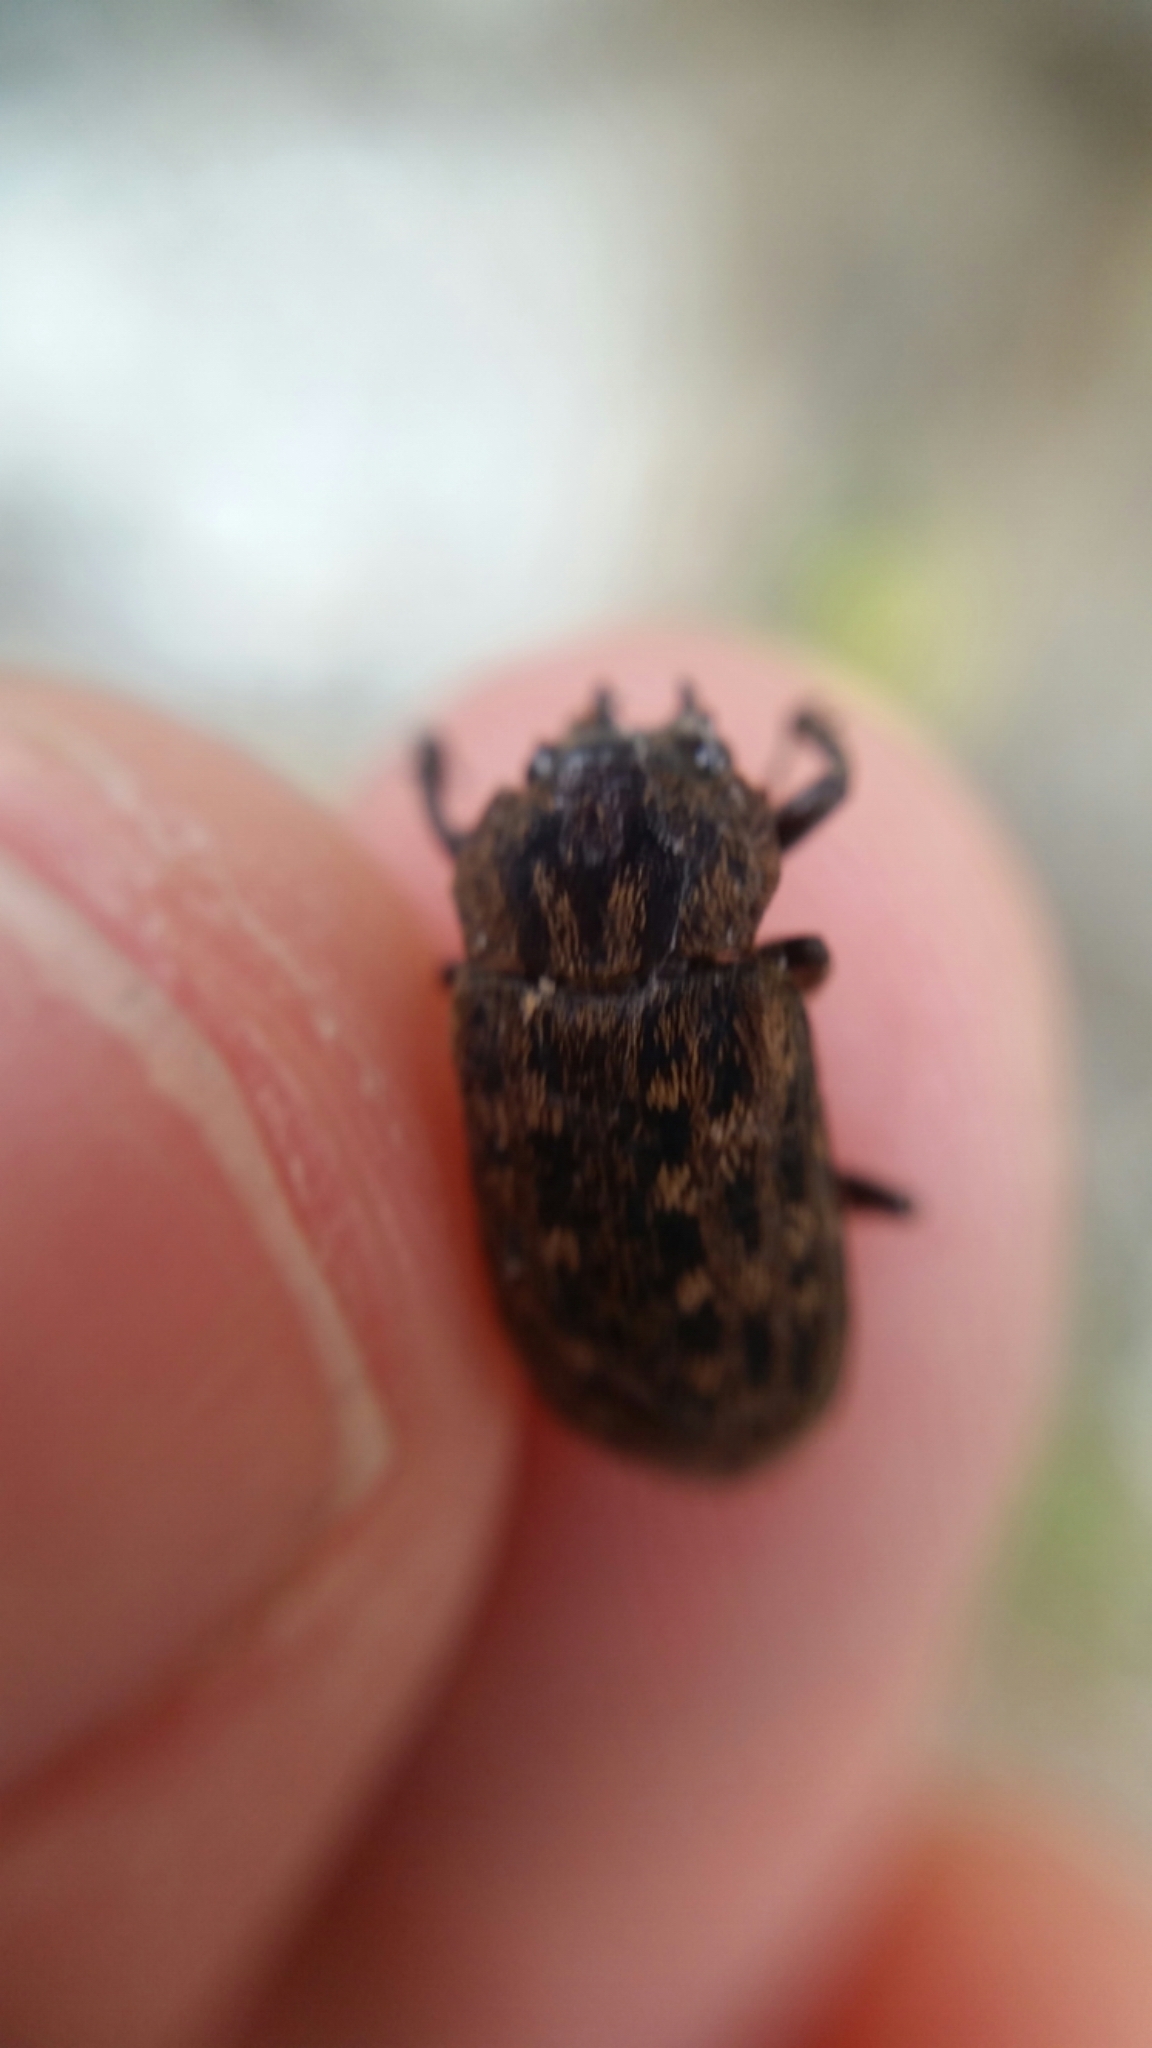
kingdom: Animalia
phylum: Arthropoda
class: Insecta
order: Coleoptera
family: Lucanidae
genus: Mitophyllus
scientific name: Mitophyllus parrianus
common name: Parry's stag beetle
